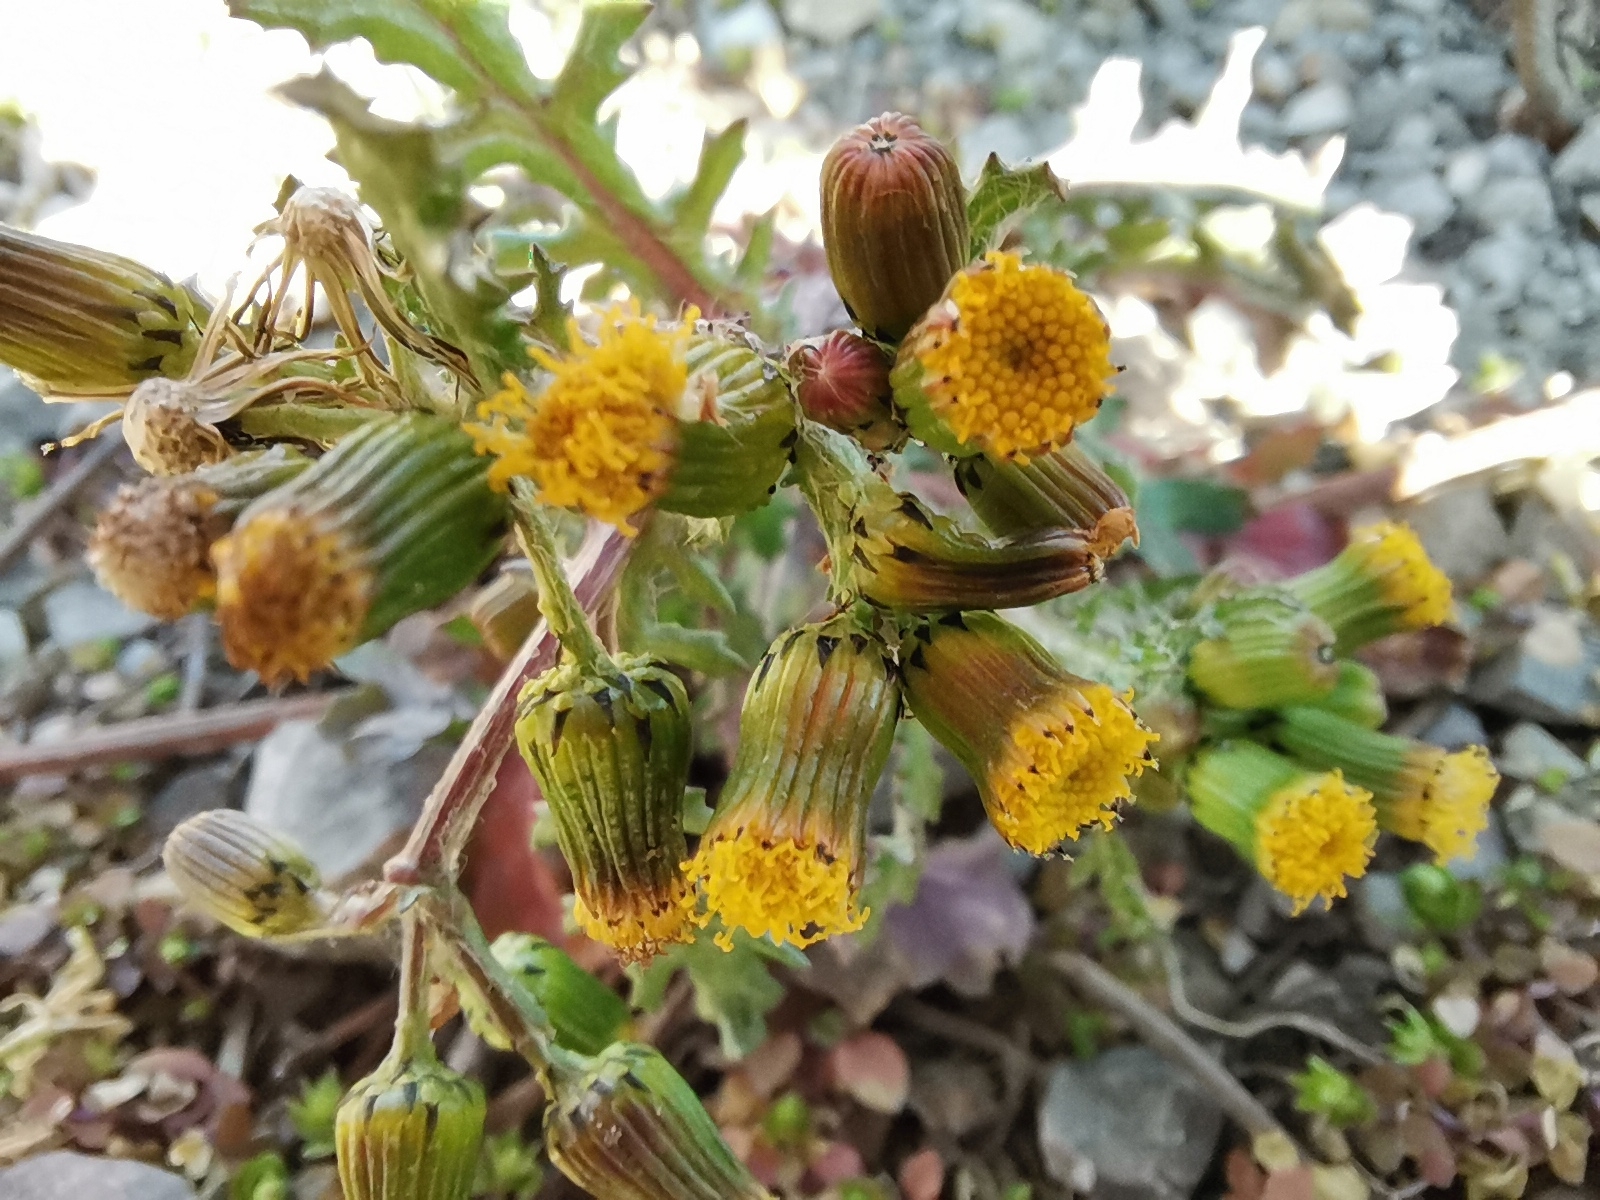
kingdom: Plantae
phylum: Tracheophyta
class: Magnoliopsida
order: Asterales
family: Asteraceae
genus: Senecio
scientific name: Senecio vulgaris
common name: Old-man-in-the-spring
